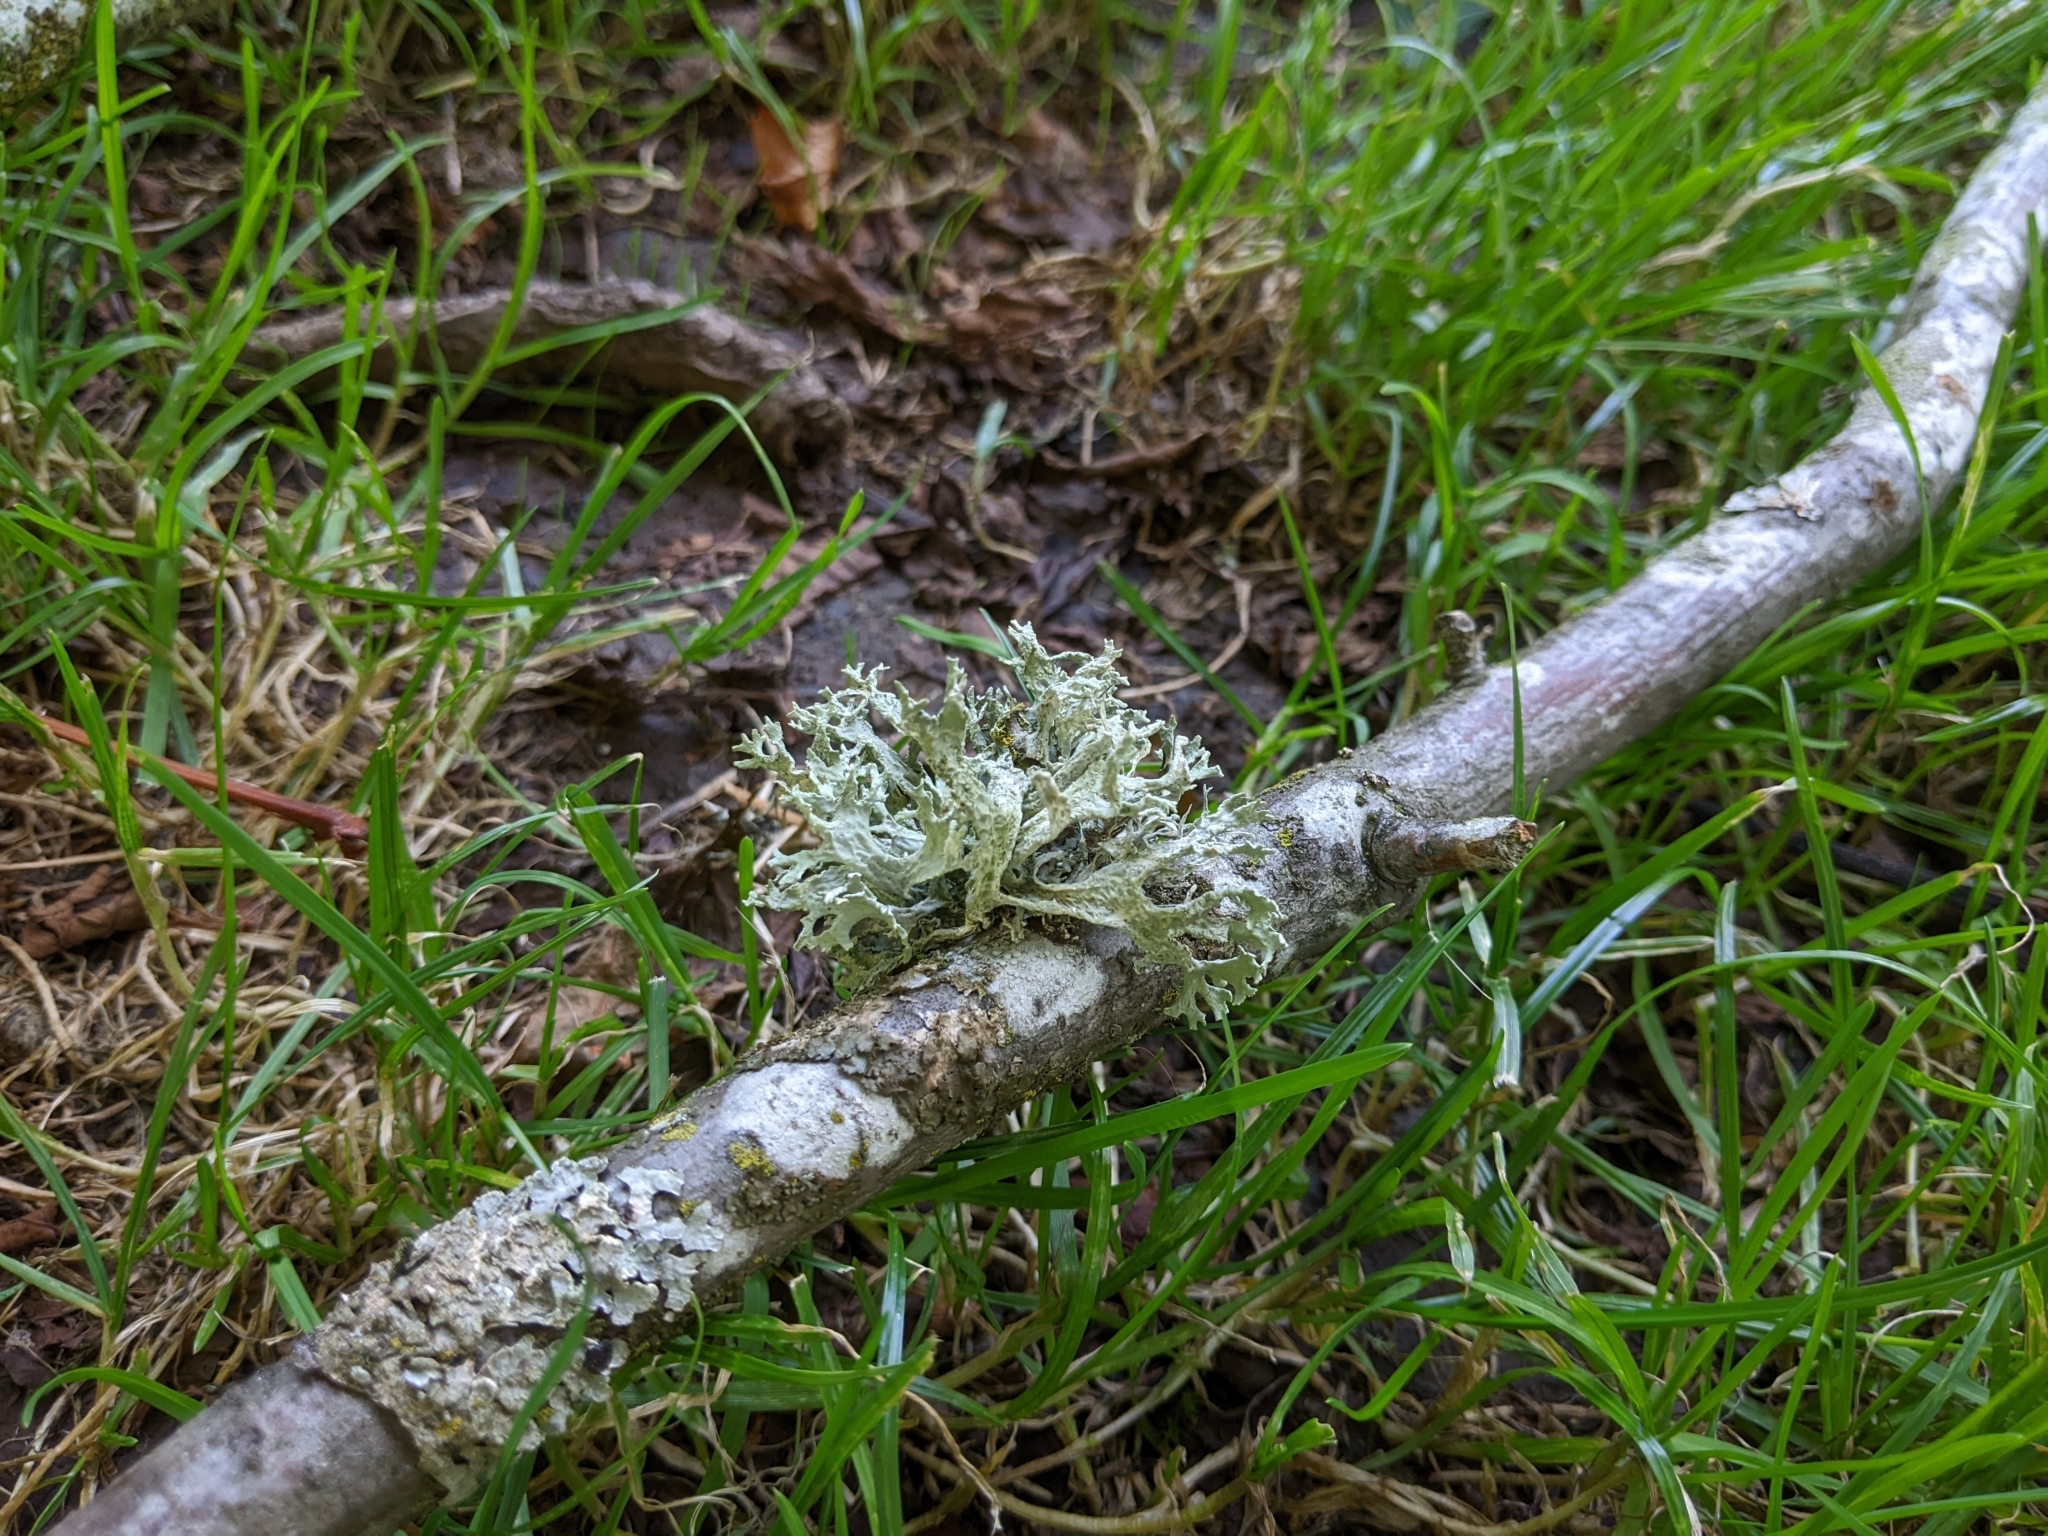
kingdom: Fungi
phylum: Ascomycota
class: Lecanoromycetes
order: Lecanorales
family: Parmeliaceae
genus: Evernia
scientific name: Evernia prunastri
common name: Oak moss
